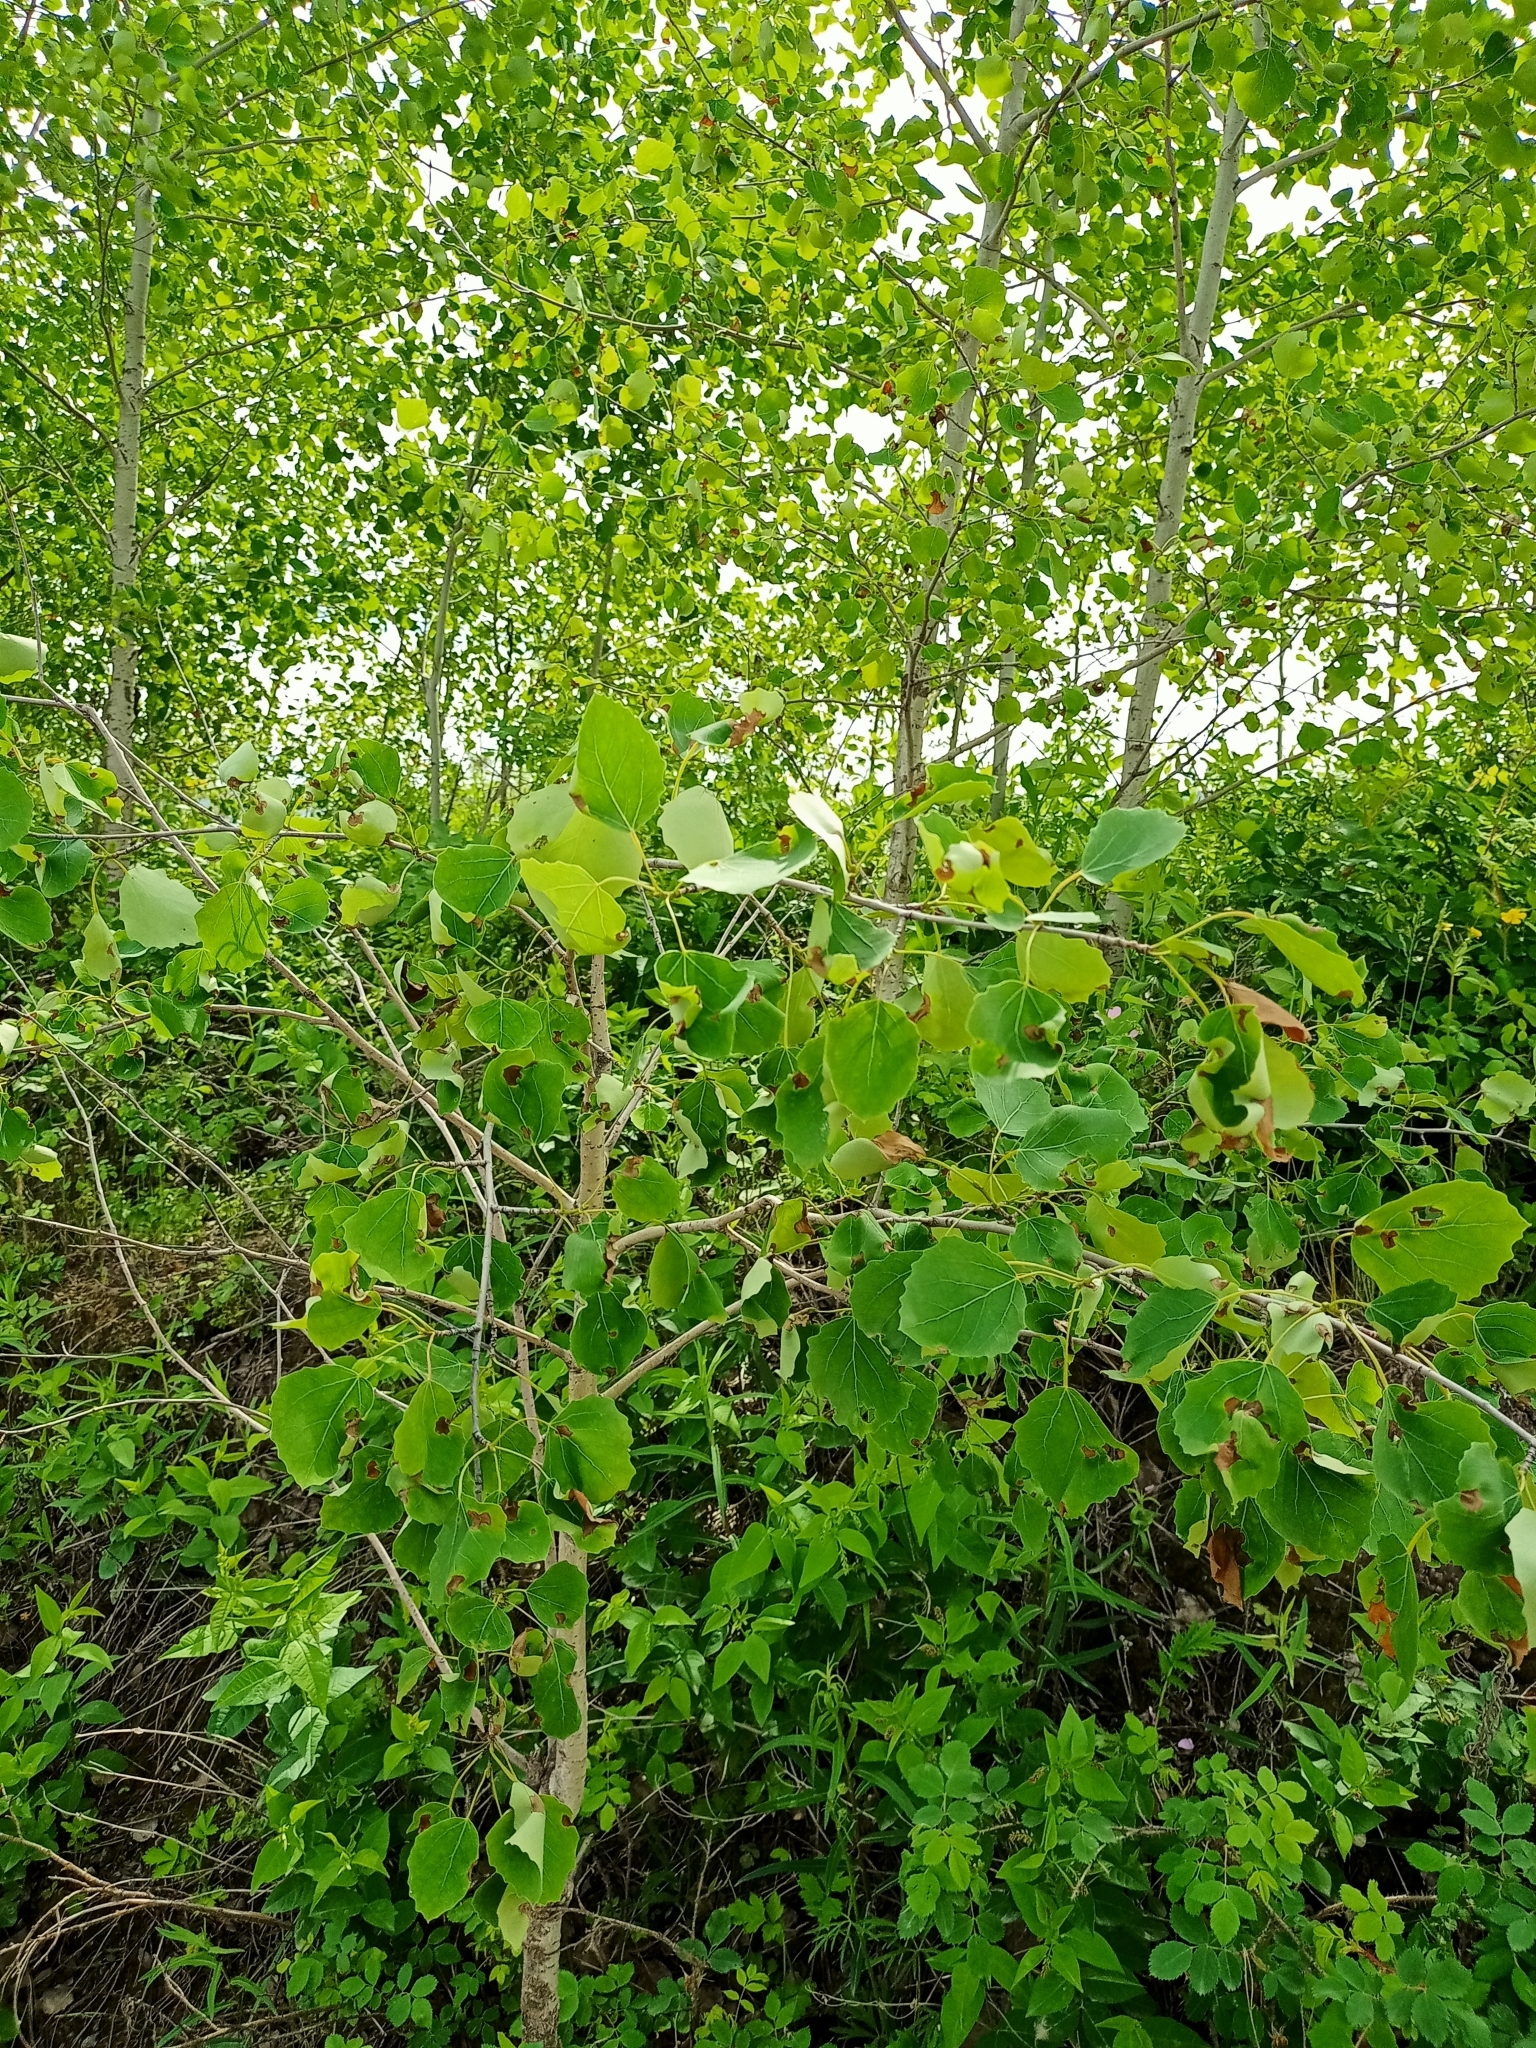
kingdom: Plantae
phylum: Tracheophyta
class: Magnoliopsida
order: Malpighiales
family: Salicaceae
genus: Populus
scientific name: Populus tremula
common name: European aspen
